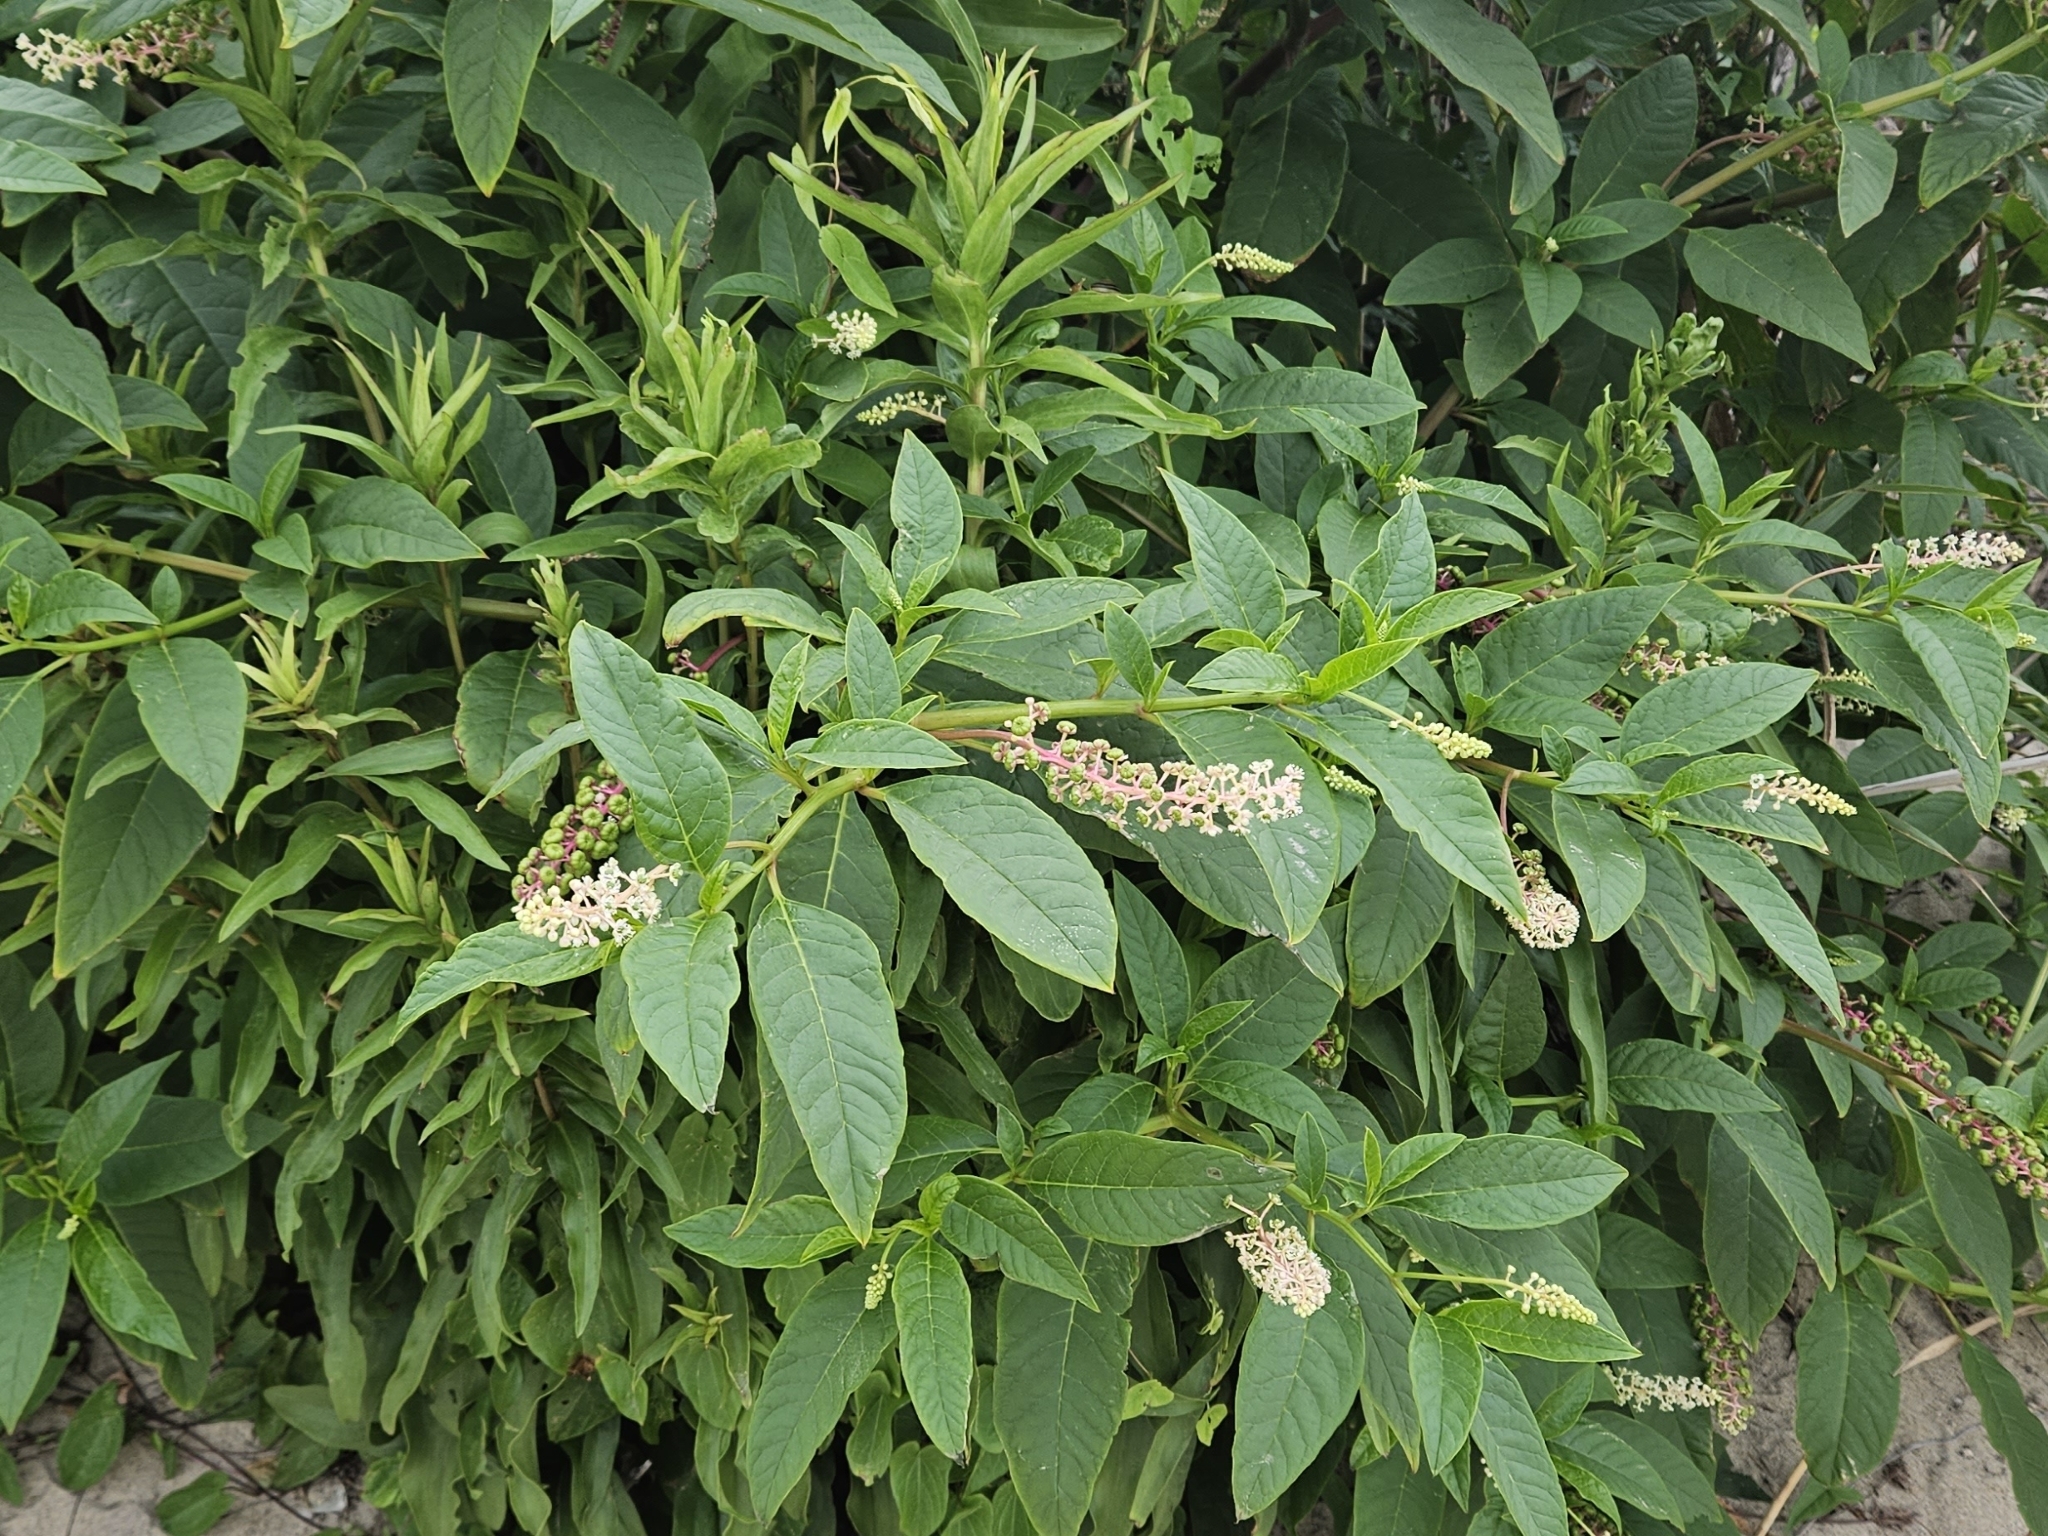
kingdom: Plantae
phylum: Tracheophyta
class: Magnoliopsida
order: Caryophyllales
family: Phytolaccaceae
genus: Phytolacca
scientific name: Phytolacca americana
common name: American pokeweed
